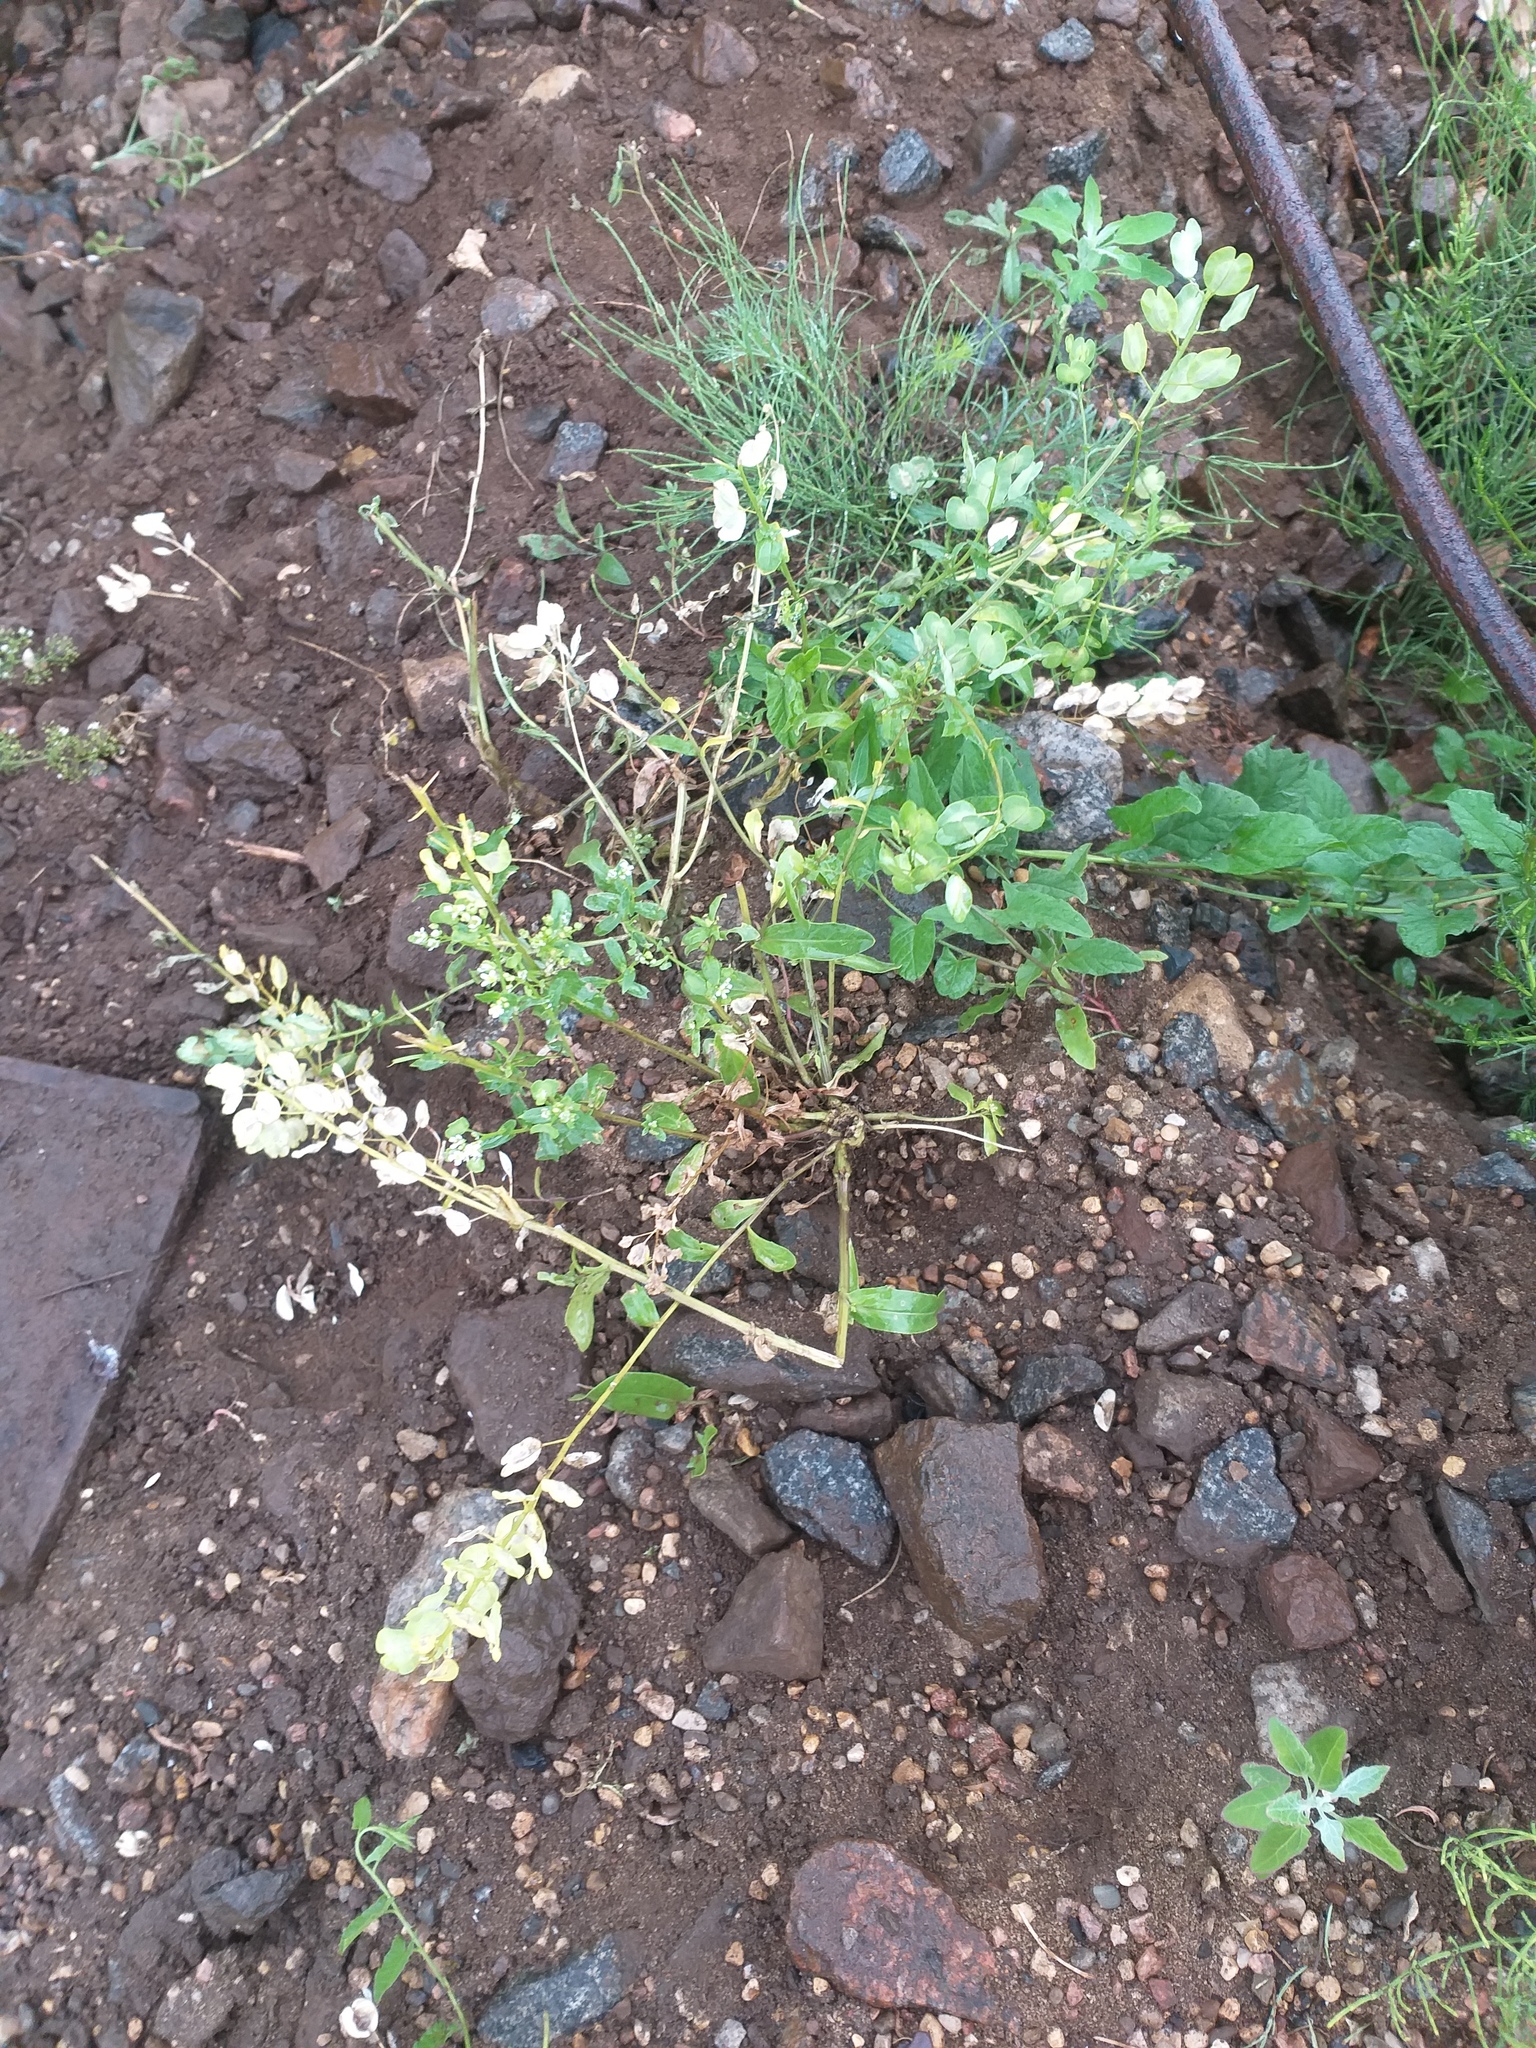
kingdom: Plantae
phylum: Tracheophyta
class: Magnoliopsida
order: Brassicales
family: Brassicaceae
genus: Thlaspi
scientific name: Thlaspi arvense
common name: Field pennycress
